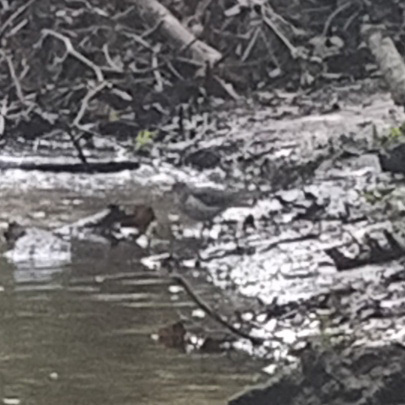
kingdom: Animalia
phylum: Chordata
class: Aves
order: Charadriiformes
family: Scolopacidae
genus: Actitis
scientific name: Actitis macularius
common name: Spotted sandpiper
